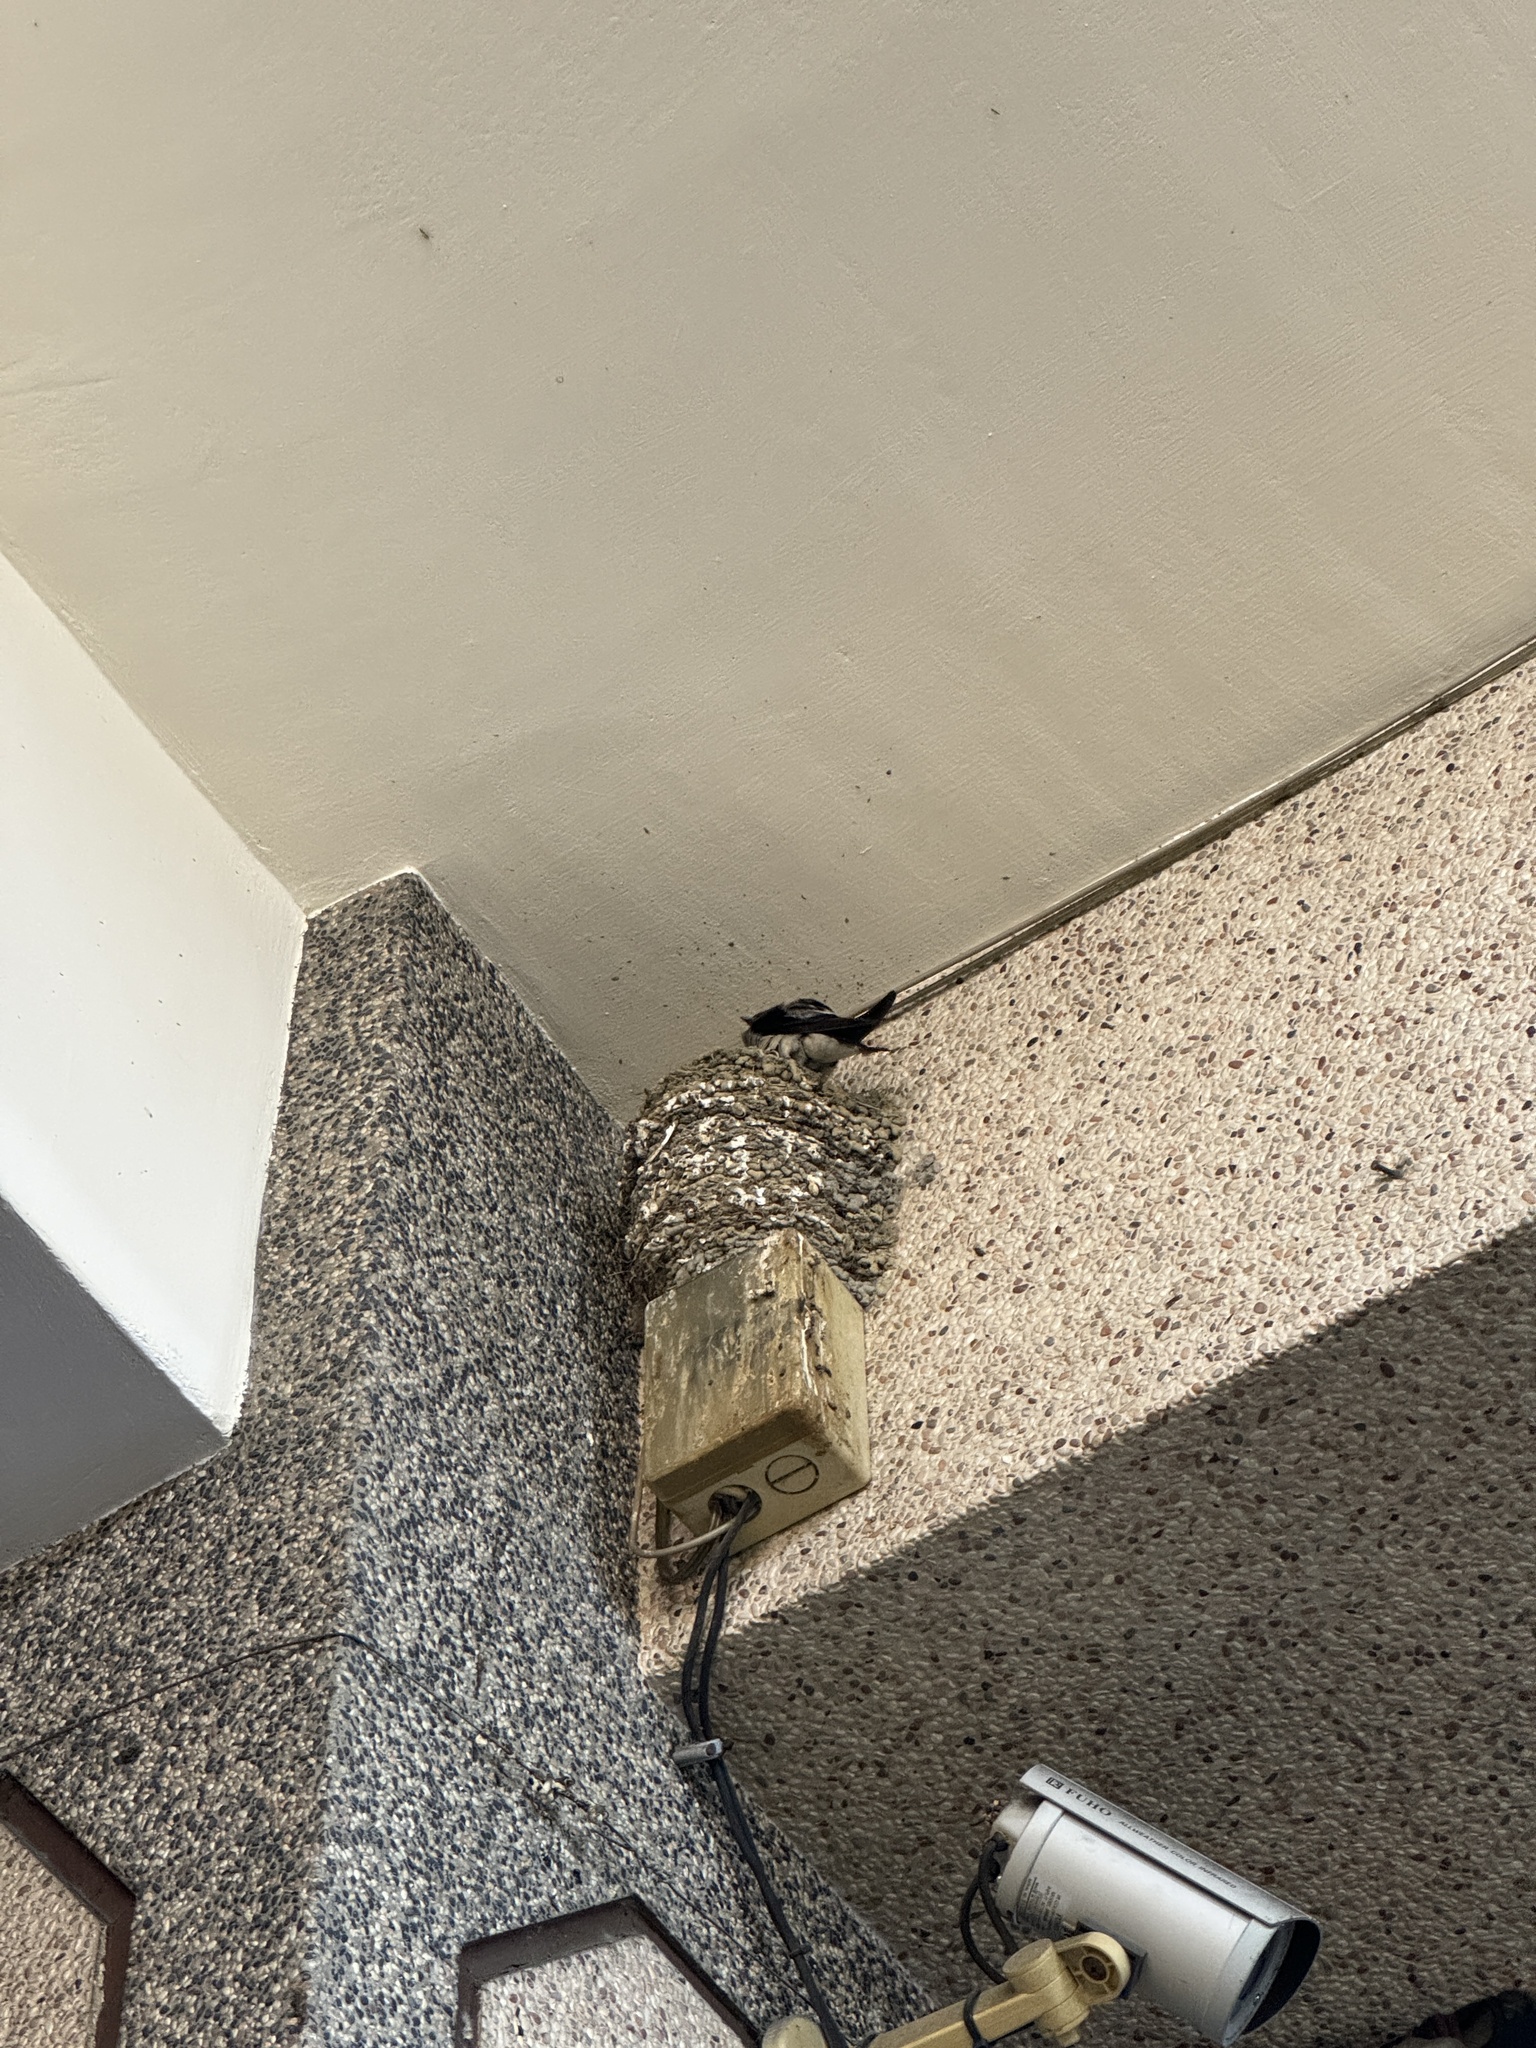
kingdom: Animalia
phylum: Chordata
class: Aves
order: Passeriformes
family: Hirundinidae
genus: Hirundo
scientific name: Hirundo rustica
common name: Barn swallow
